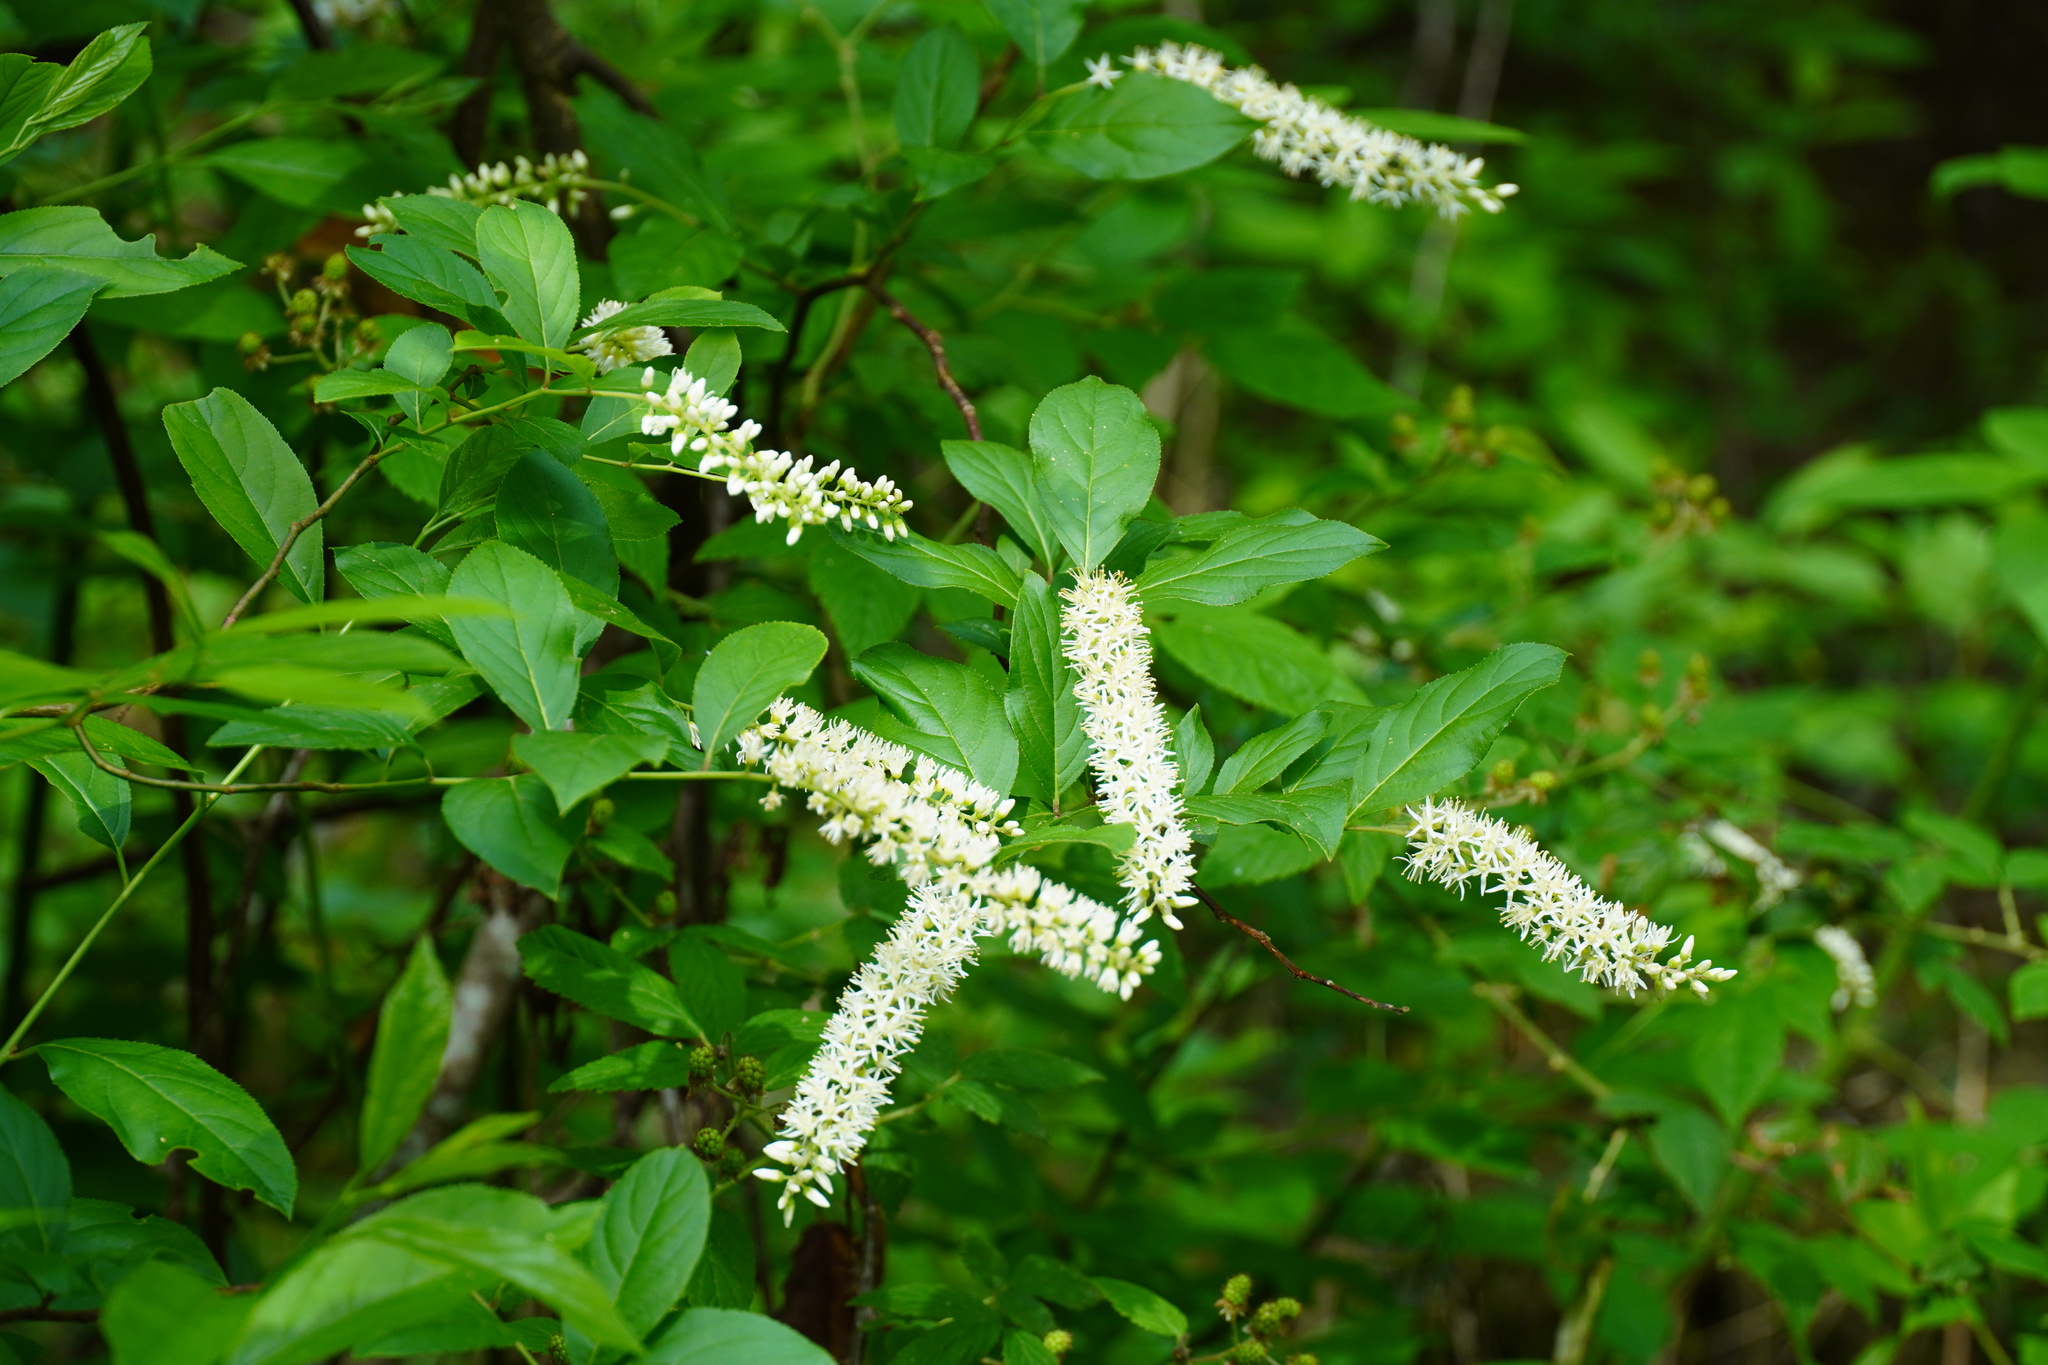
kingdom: Plantae
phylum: Tracheophyta
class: Magnoliopsida
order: Saxifragales
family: Iteaceae
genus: Itea
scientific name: Itea virginica
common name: Sweetspire
